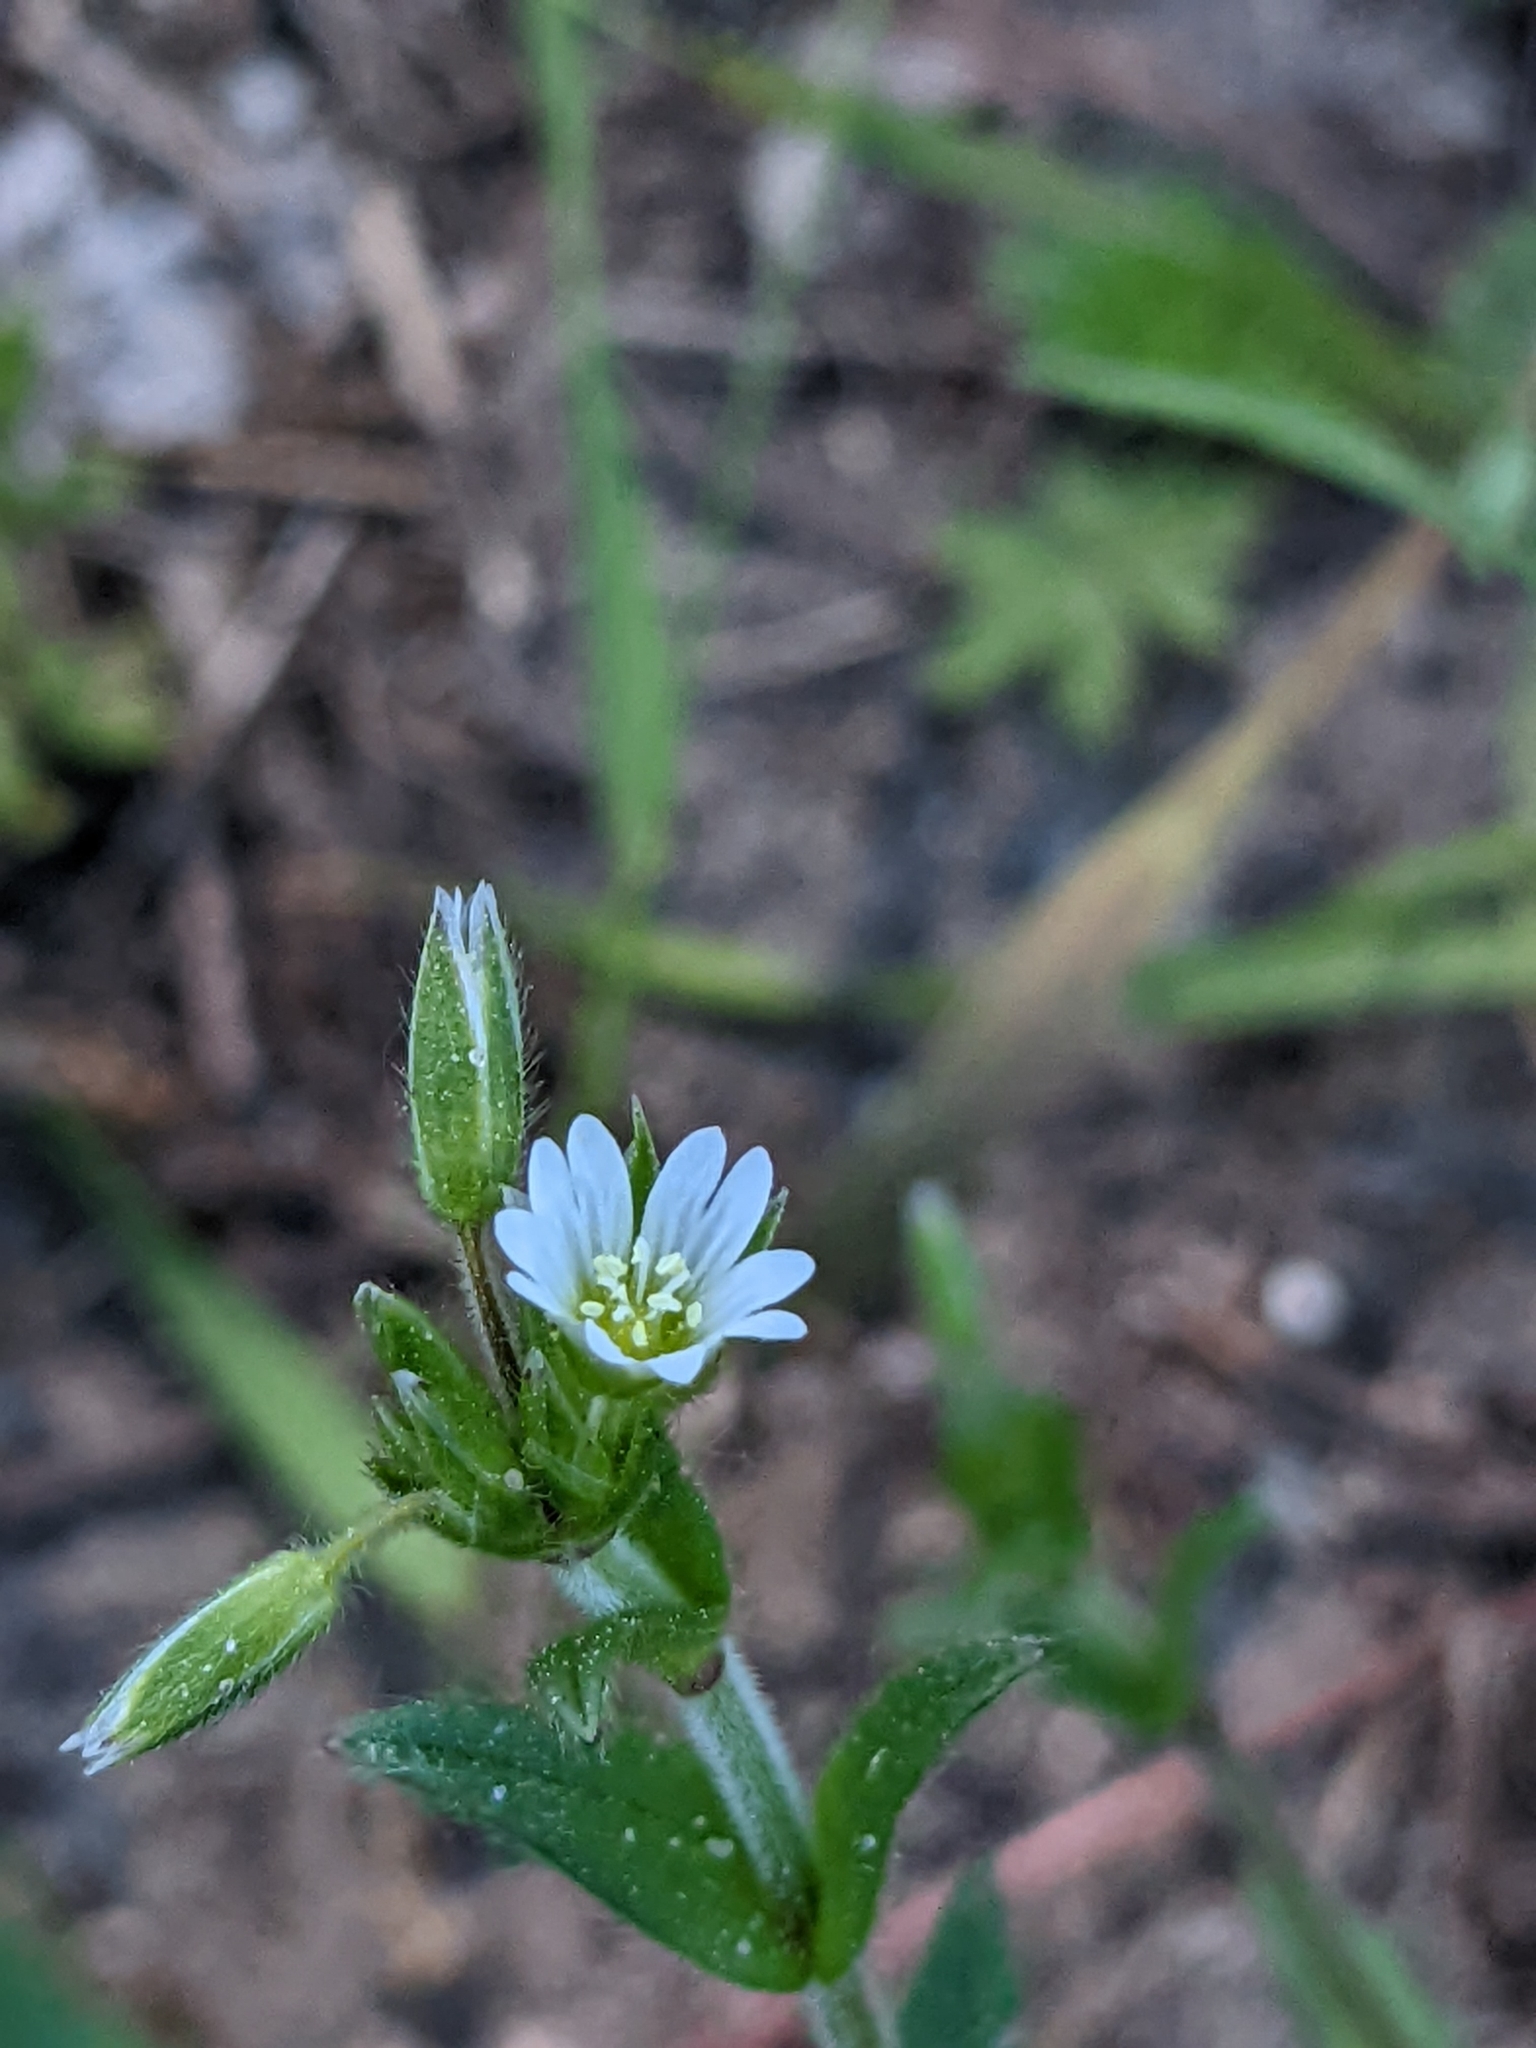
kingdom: Plantae
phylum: Tracheophyta
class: Magnoliopsida
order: Caryophyllales
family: Caryophyllaceae
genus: Cerastium
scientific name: Cerastium holosteoides
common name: Big chickweed
